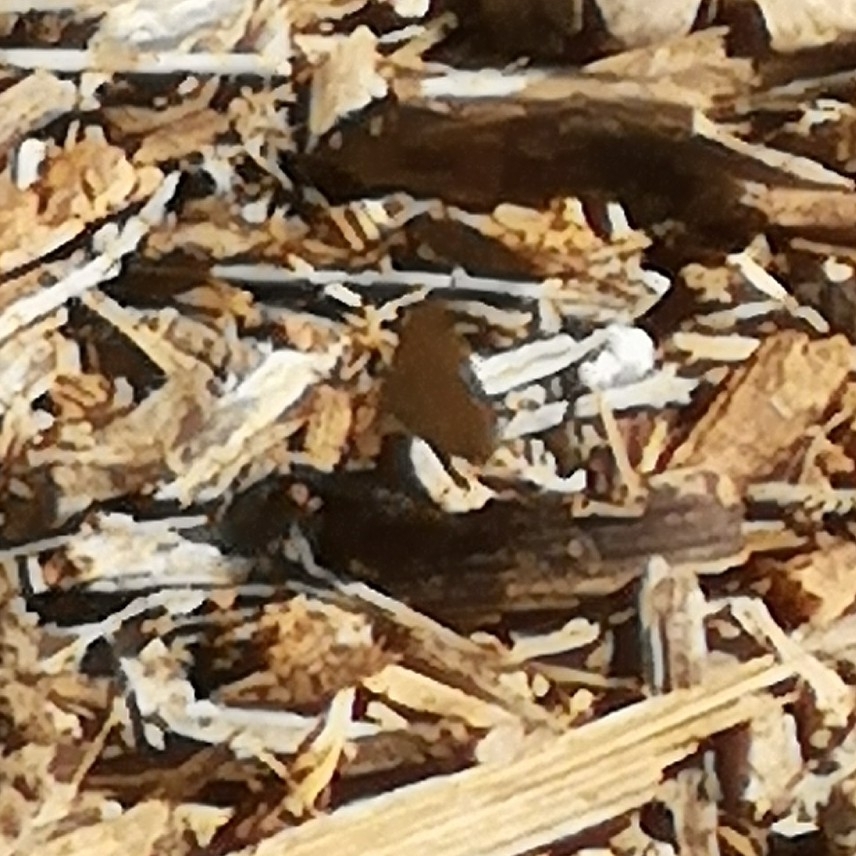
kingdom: Animalia
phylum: Arthropoda
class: Insecta
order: Lepidoptera
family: Lycaenidae
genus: Zizeeria
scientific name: Zizeeria knysna
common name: African grass blue
